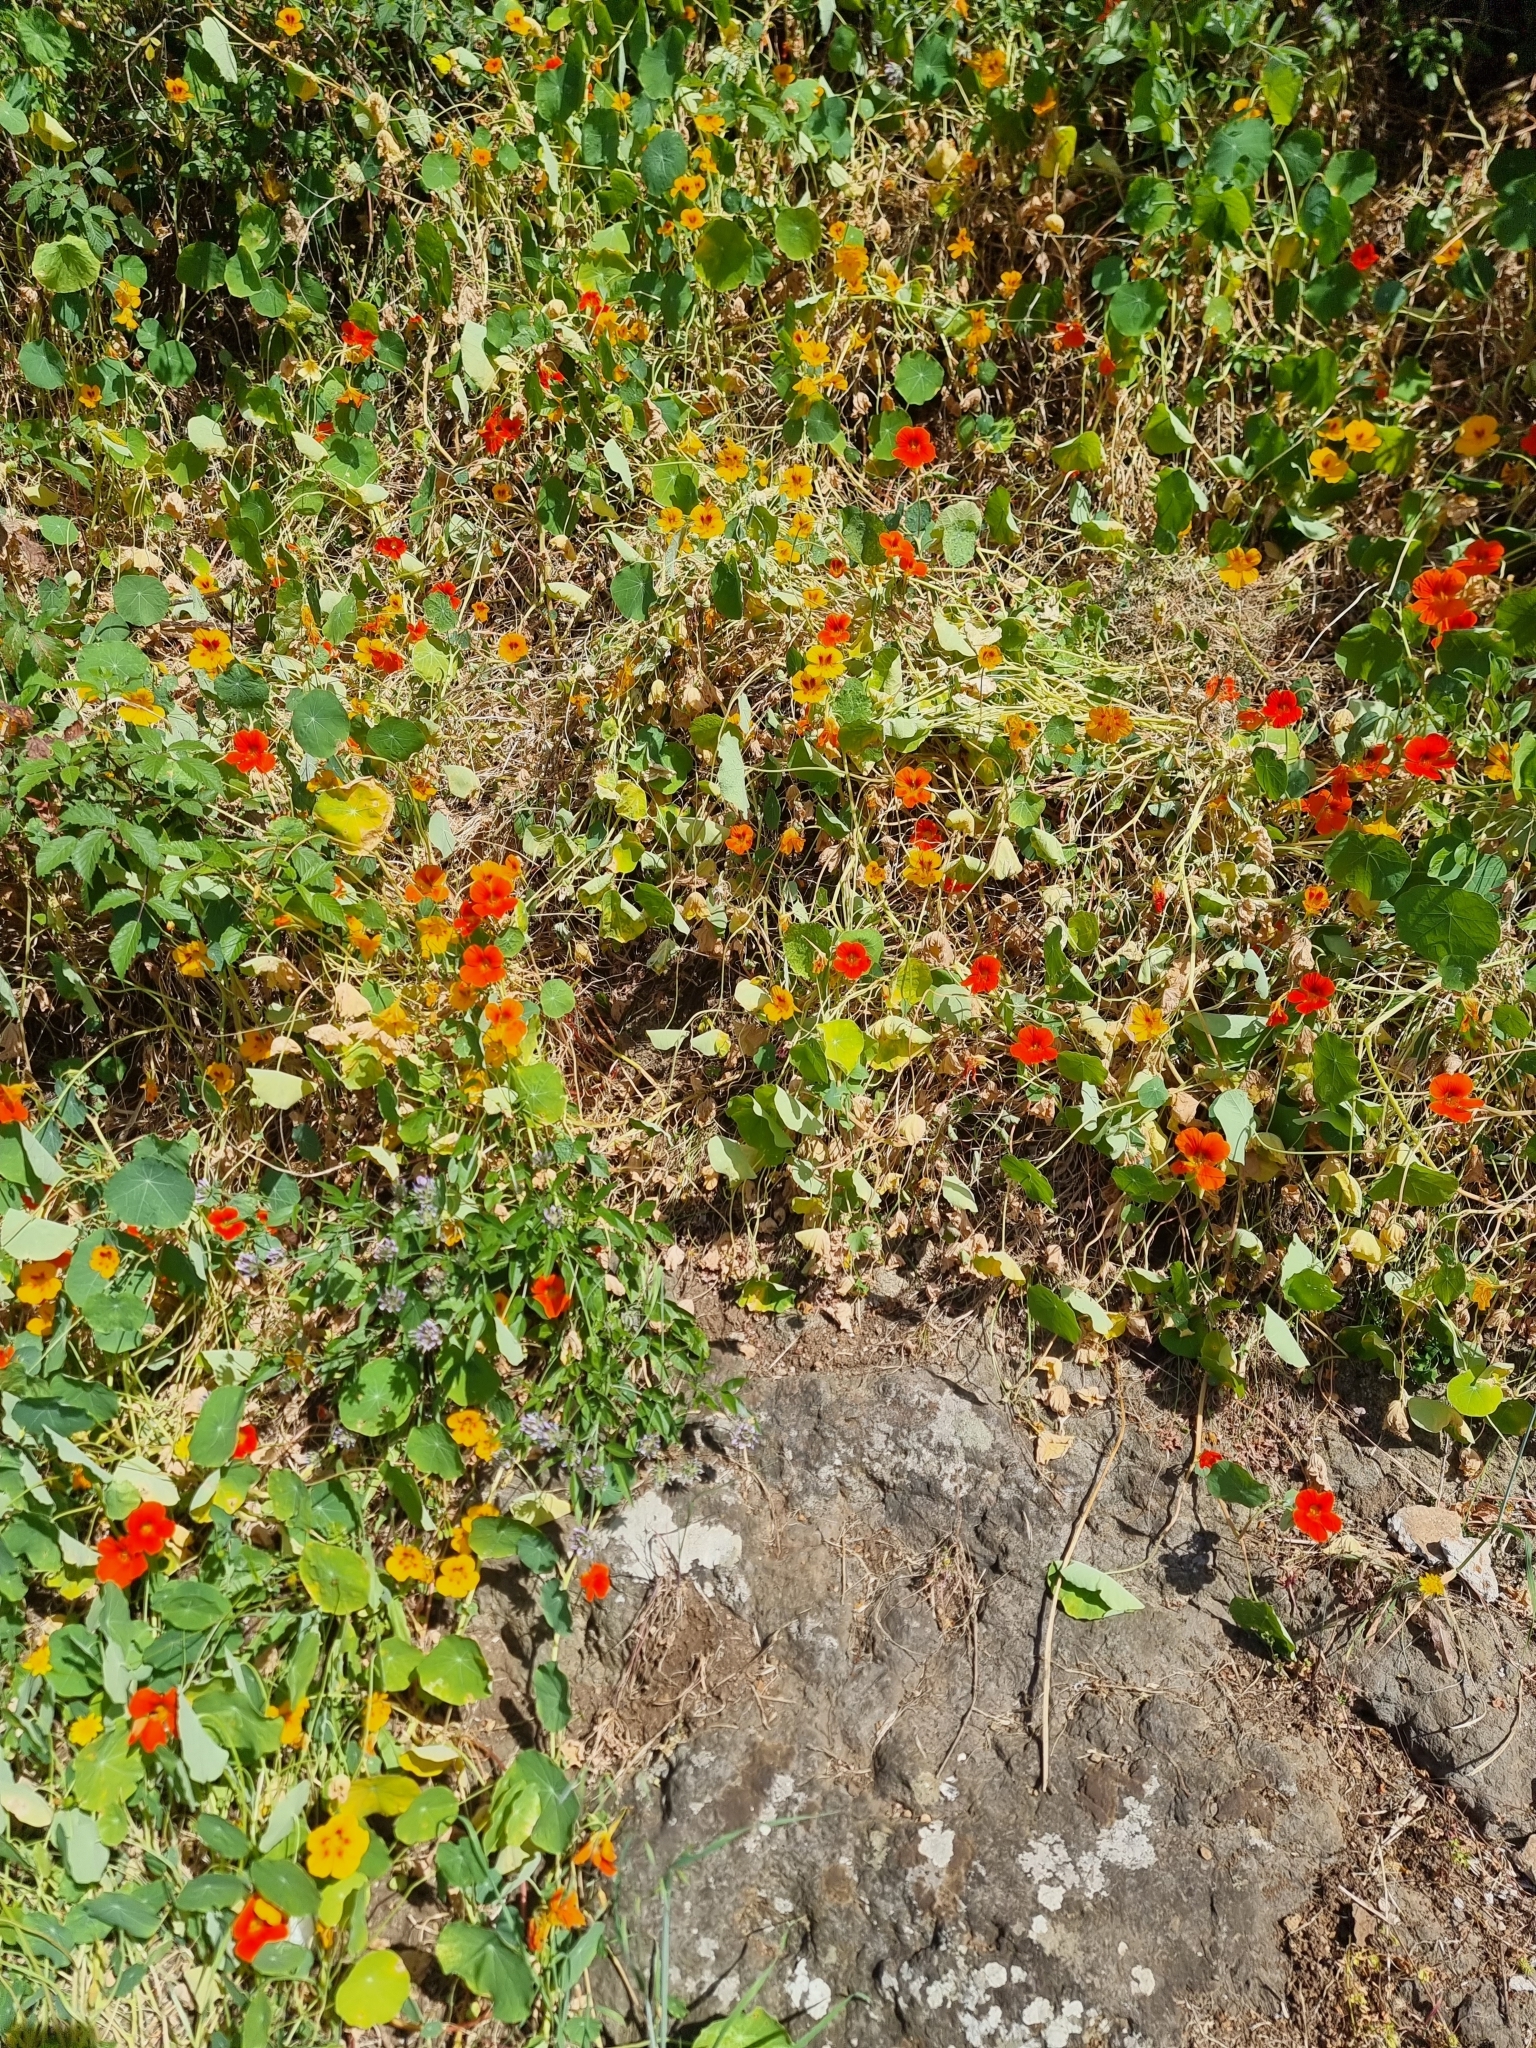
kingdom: Plantae
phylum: Tracheophyta
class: Magnoliopsida
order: Brassicales
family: Tropaeolaceae
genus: Tropaeolum
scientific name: Tropaeolum majus
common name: Nasturtium
